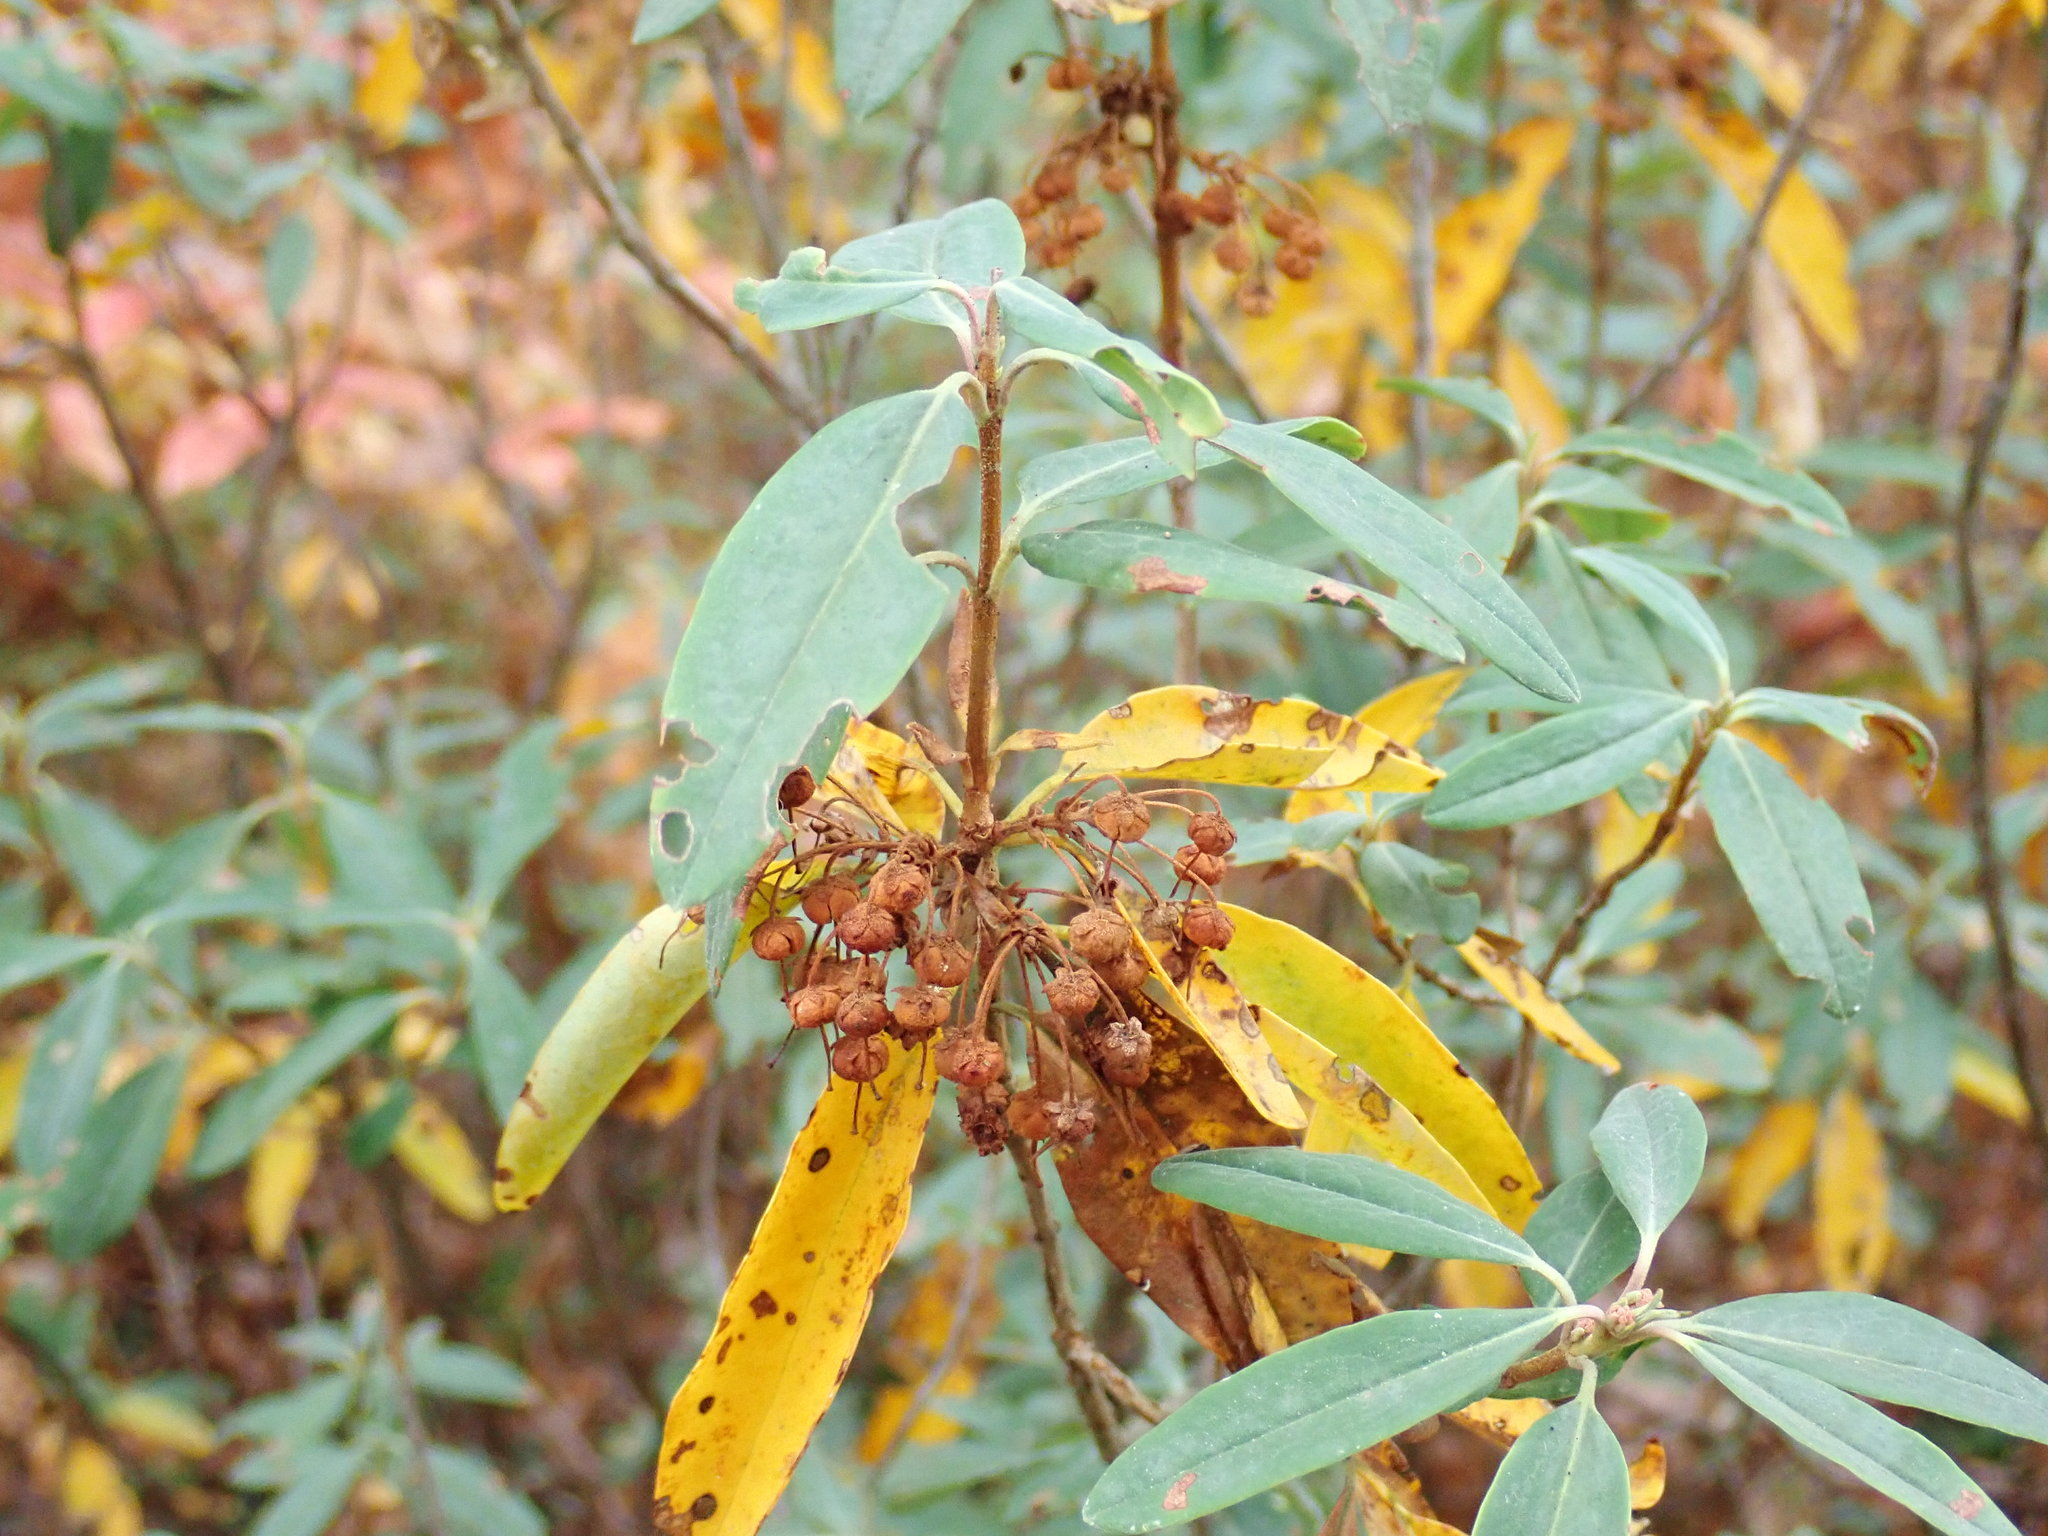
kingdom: Plantae
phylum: Tracheophyta
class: Magnoliopsida
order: Ericales
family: Ericaceae
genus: Kalmia
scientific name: Kalmia angustifolia
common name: Sheep-laurel
